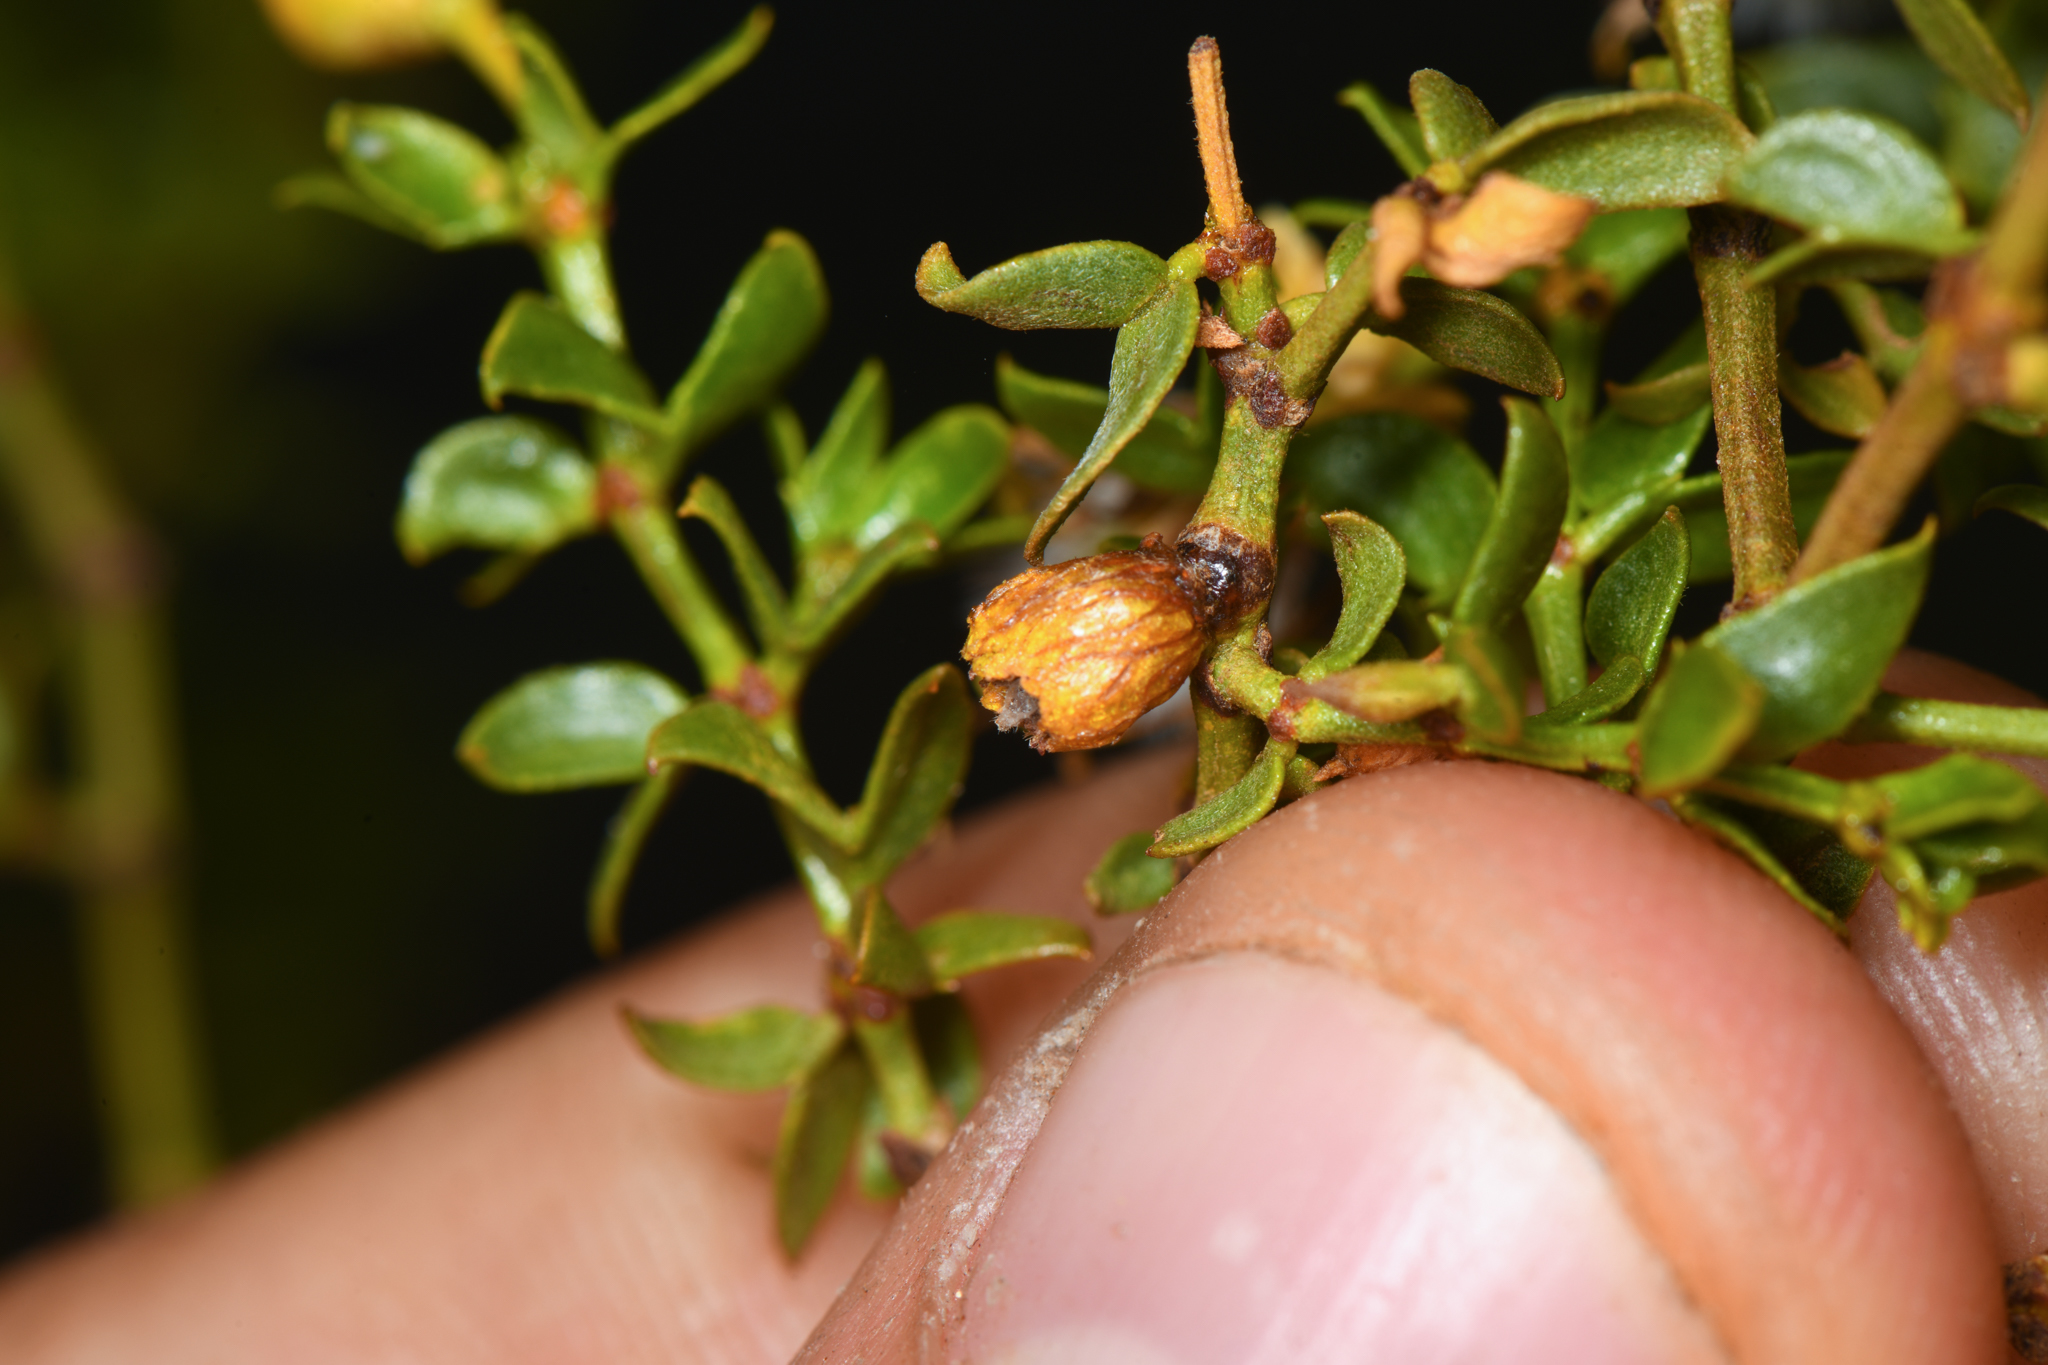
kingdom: Animalia
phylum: Arthropoda
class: Insecta
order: Diptera
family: Cecidomyiidae
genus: Asphondylia
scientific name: Asphondylia resinosa
